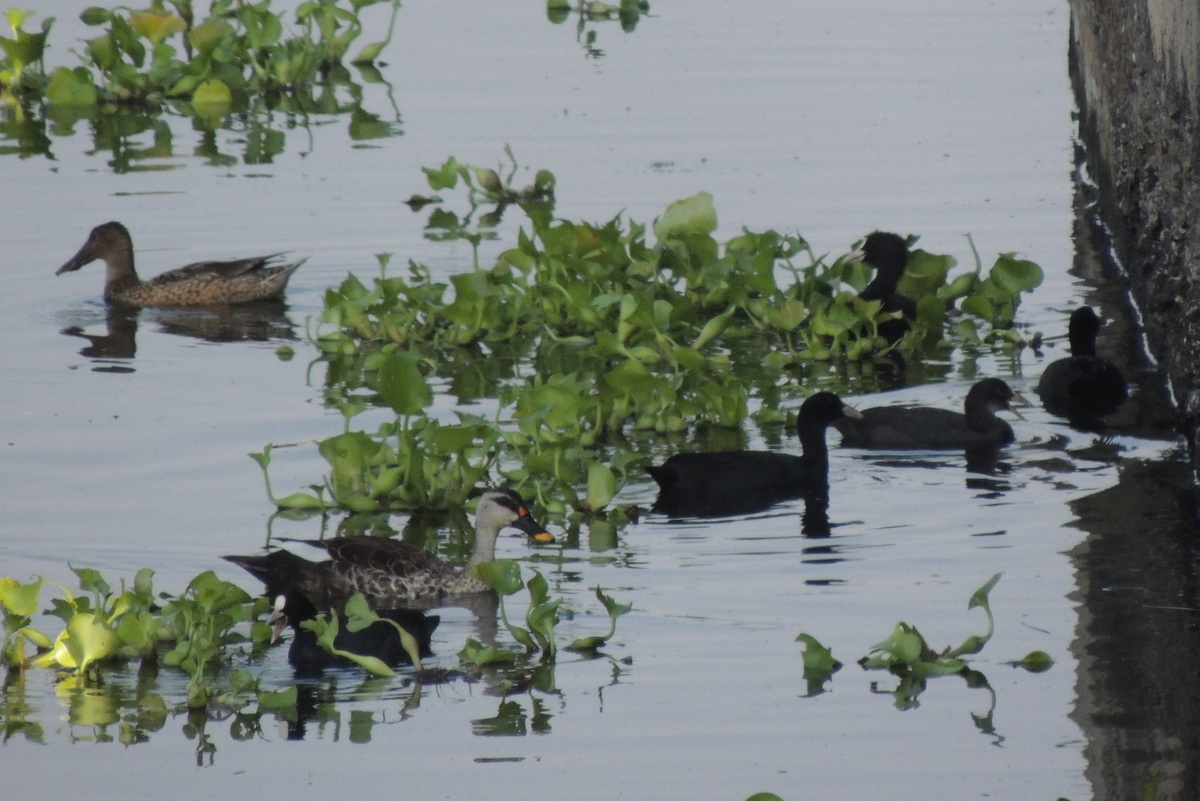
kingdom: Animalia
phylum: Chordata
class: Aves
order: Gruiformes
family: Rallidae
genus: Fulica
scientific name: Fulica atra
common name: Eurasian coot
